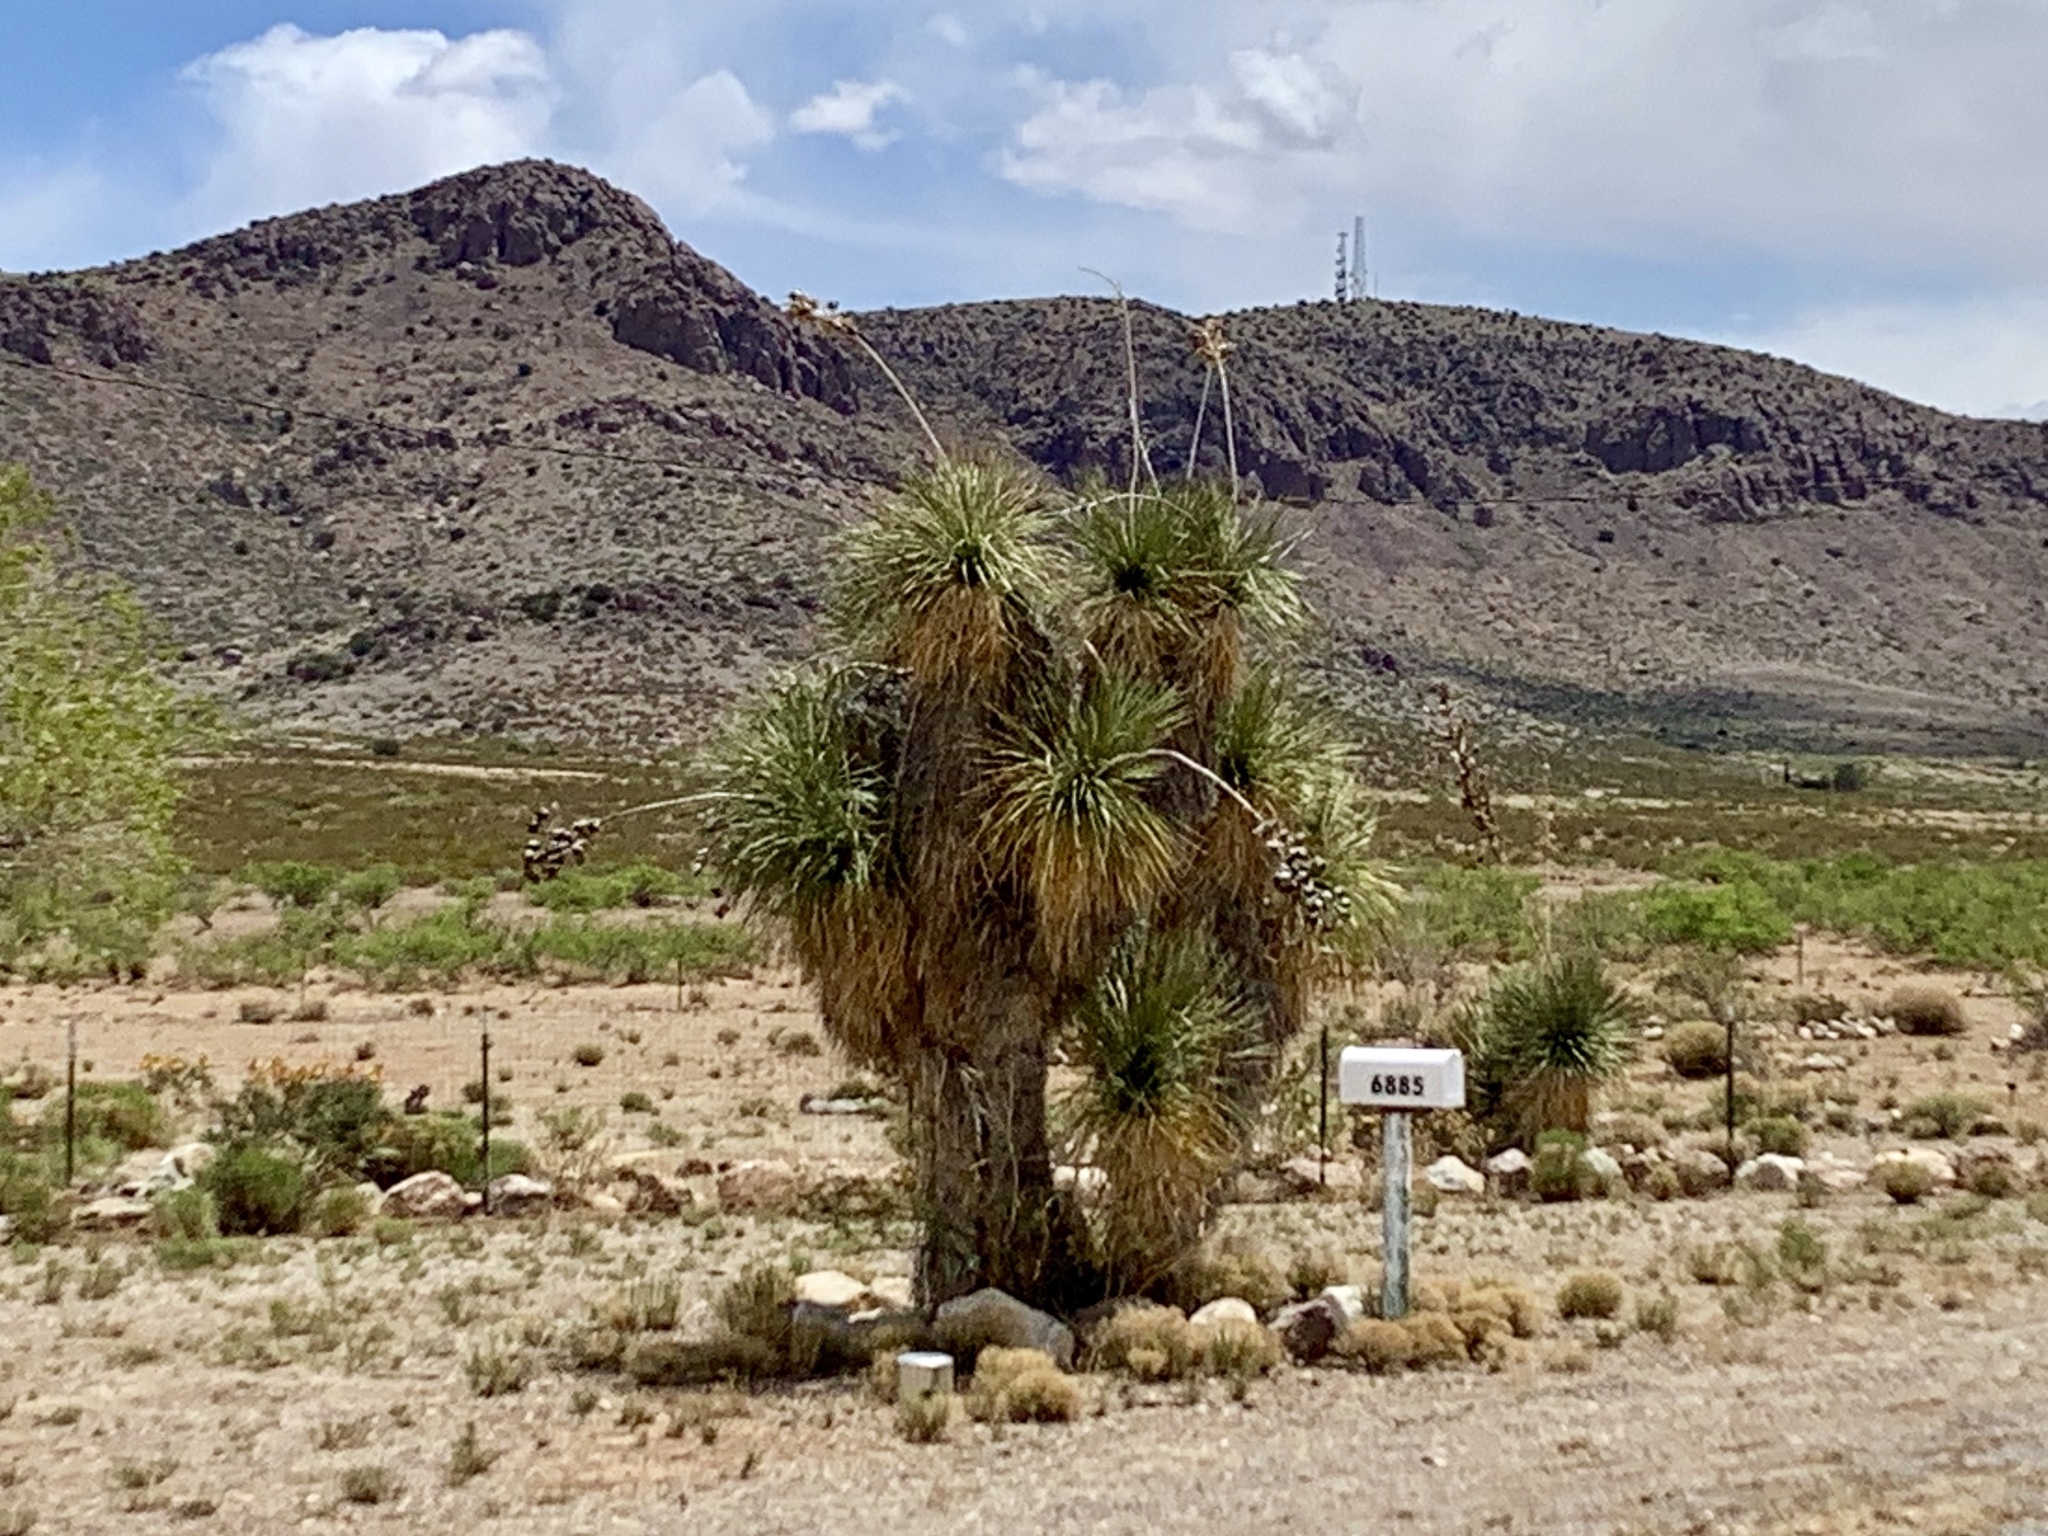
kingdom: Plantae
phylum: Tracheophyta
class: Liliopsida
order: Asparagales
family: Asparagaceae
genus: Yucca
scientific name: Yucca elata
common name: Palmella
